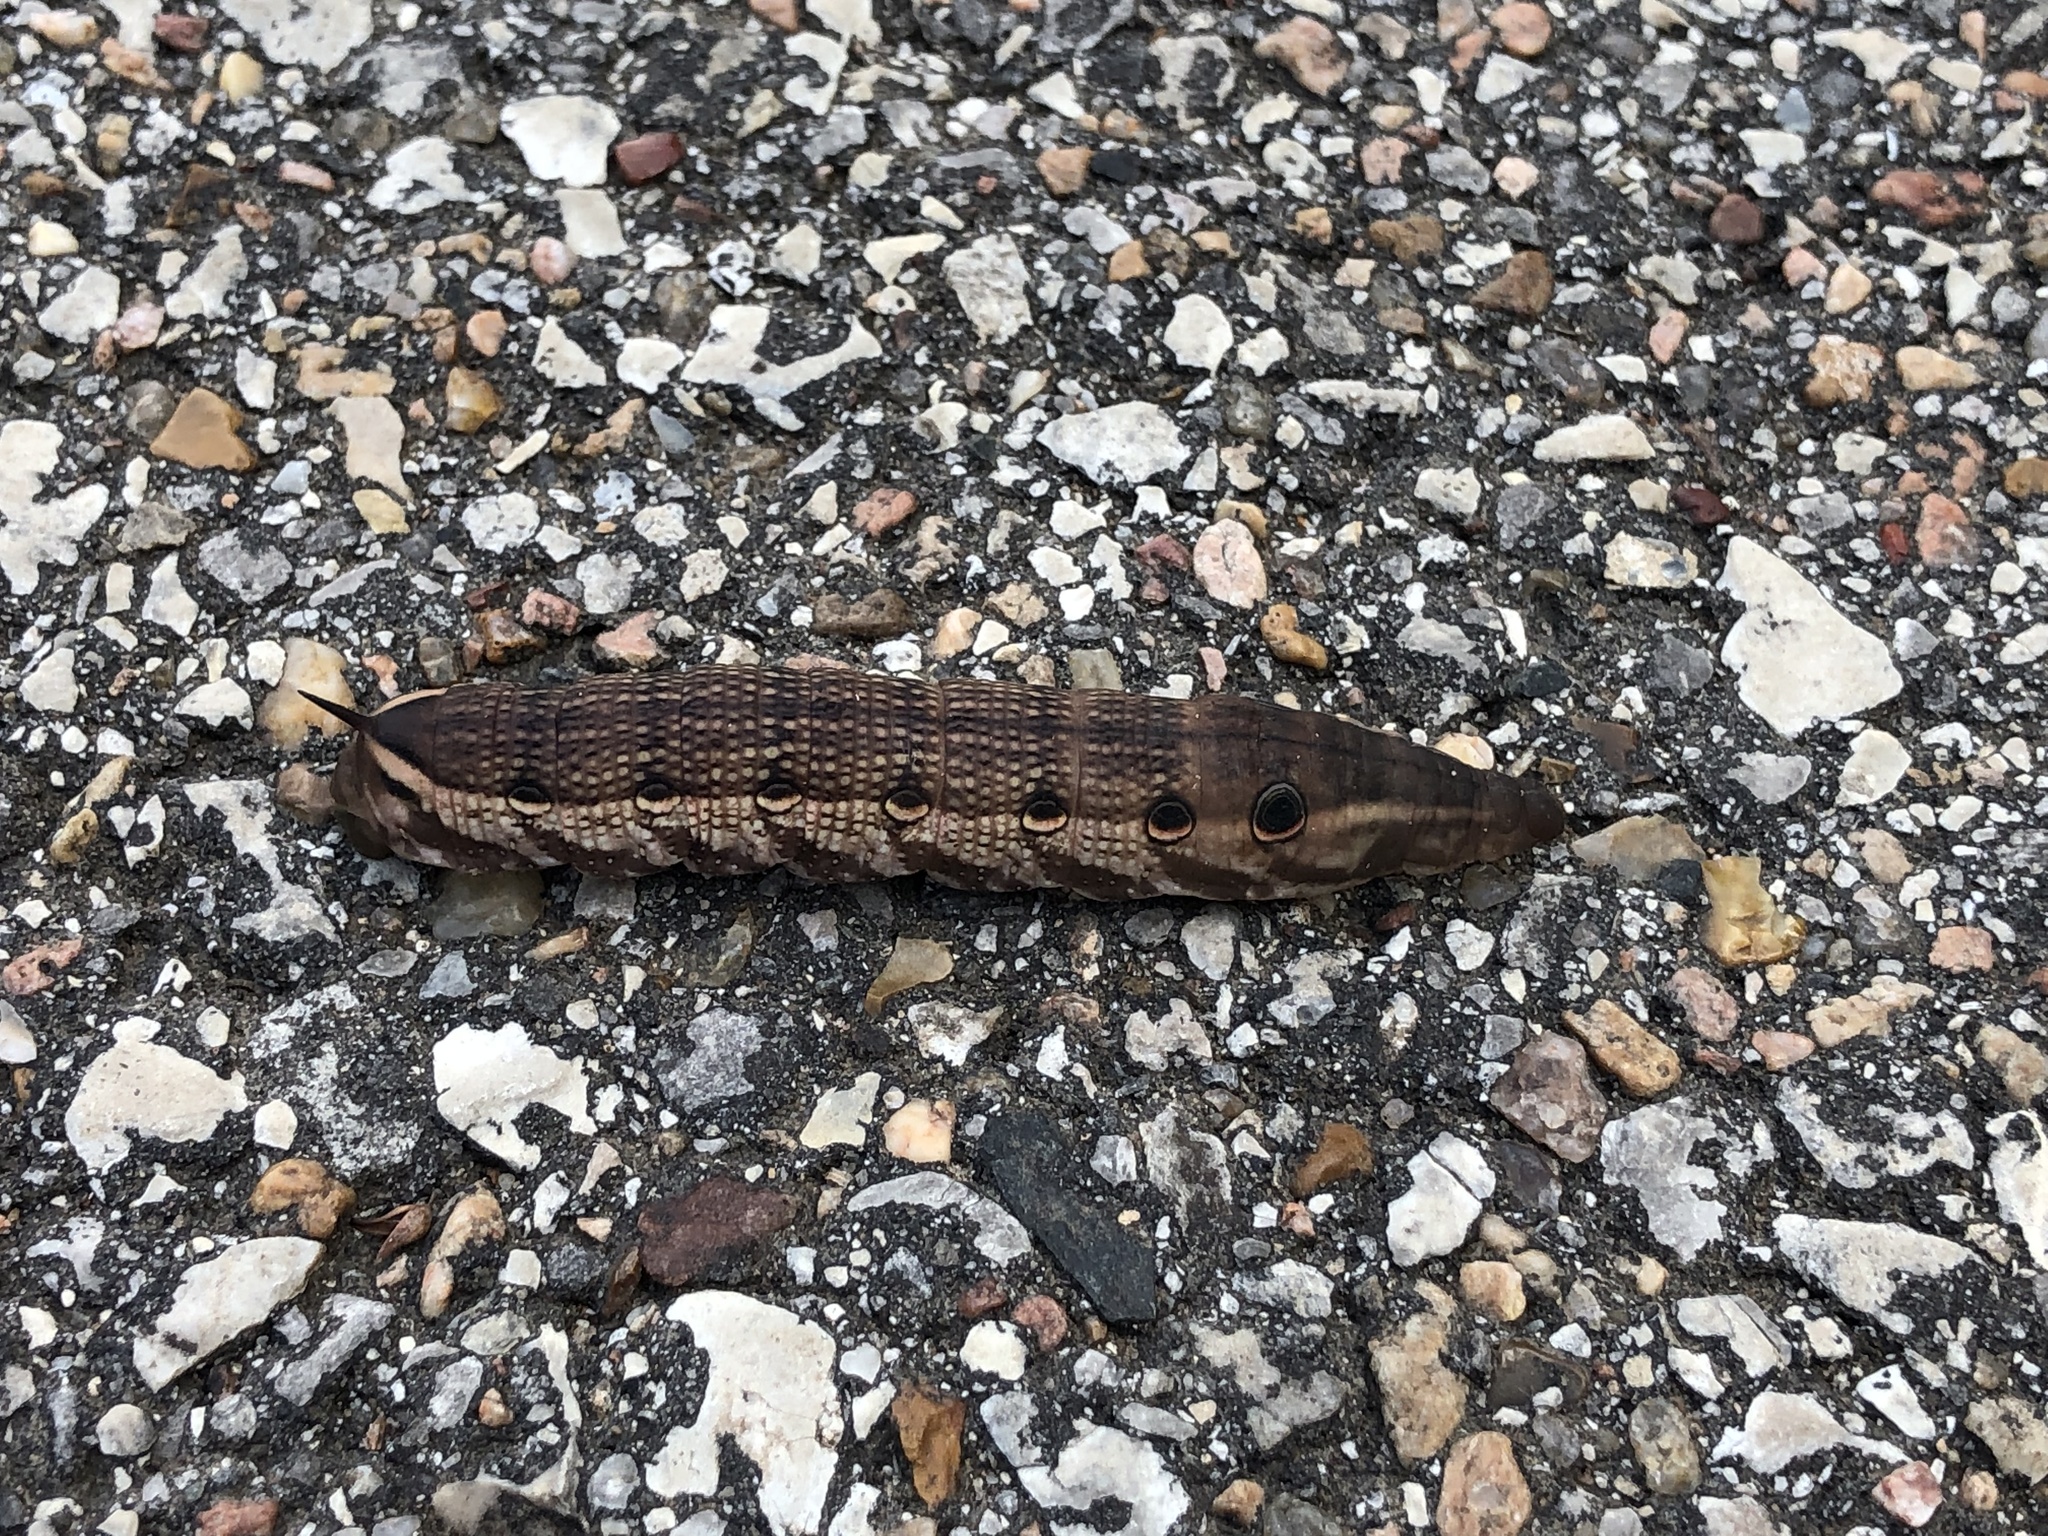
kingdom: Animalia
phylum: Arthropoda
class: Insecta
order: Lepidoptera
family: Sphingidae
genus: Xylophanes
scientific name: Xylophanes tersa
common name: Tersa sphinx
